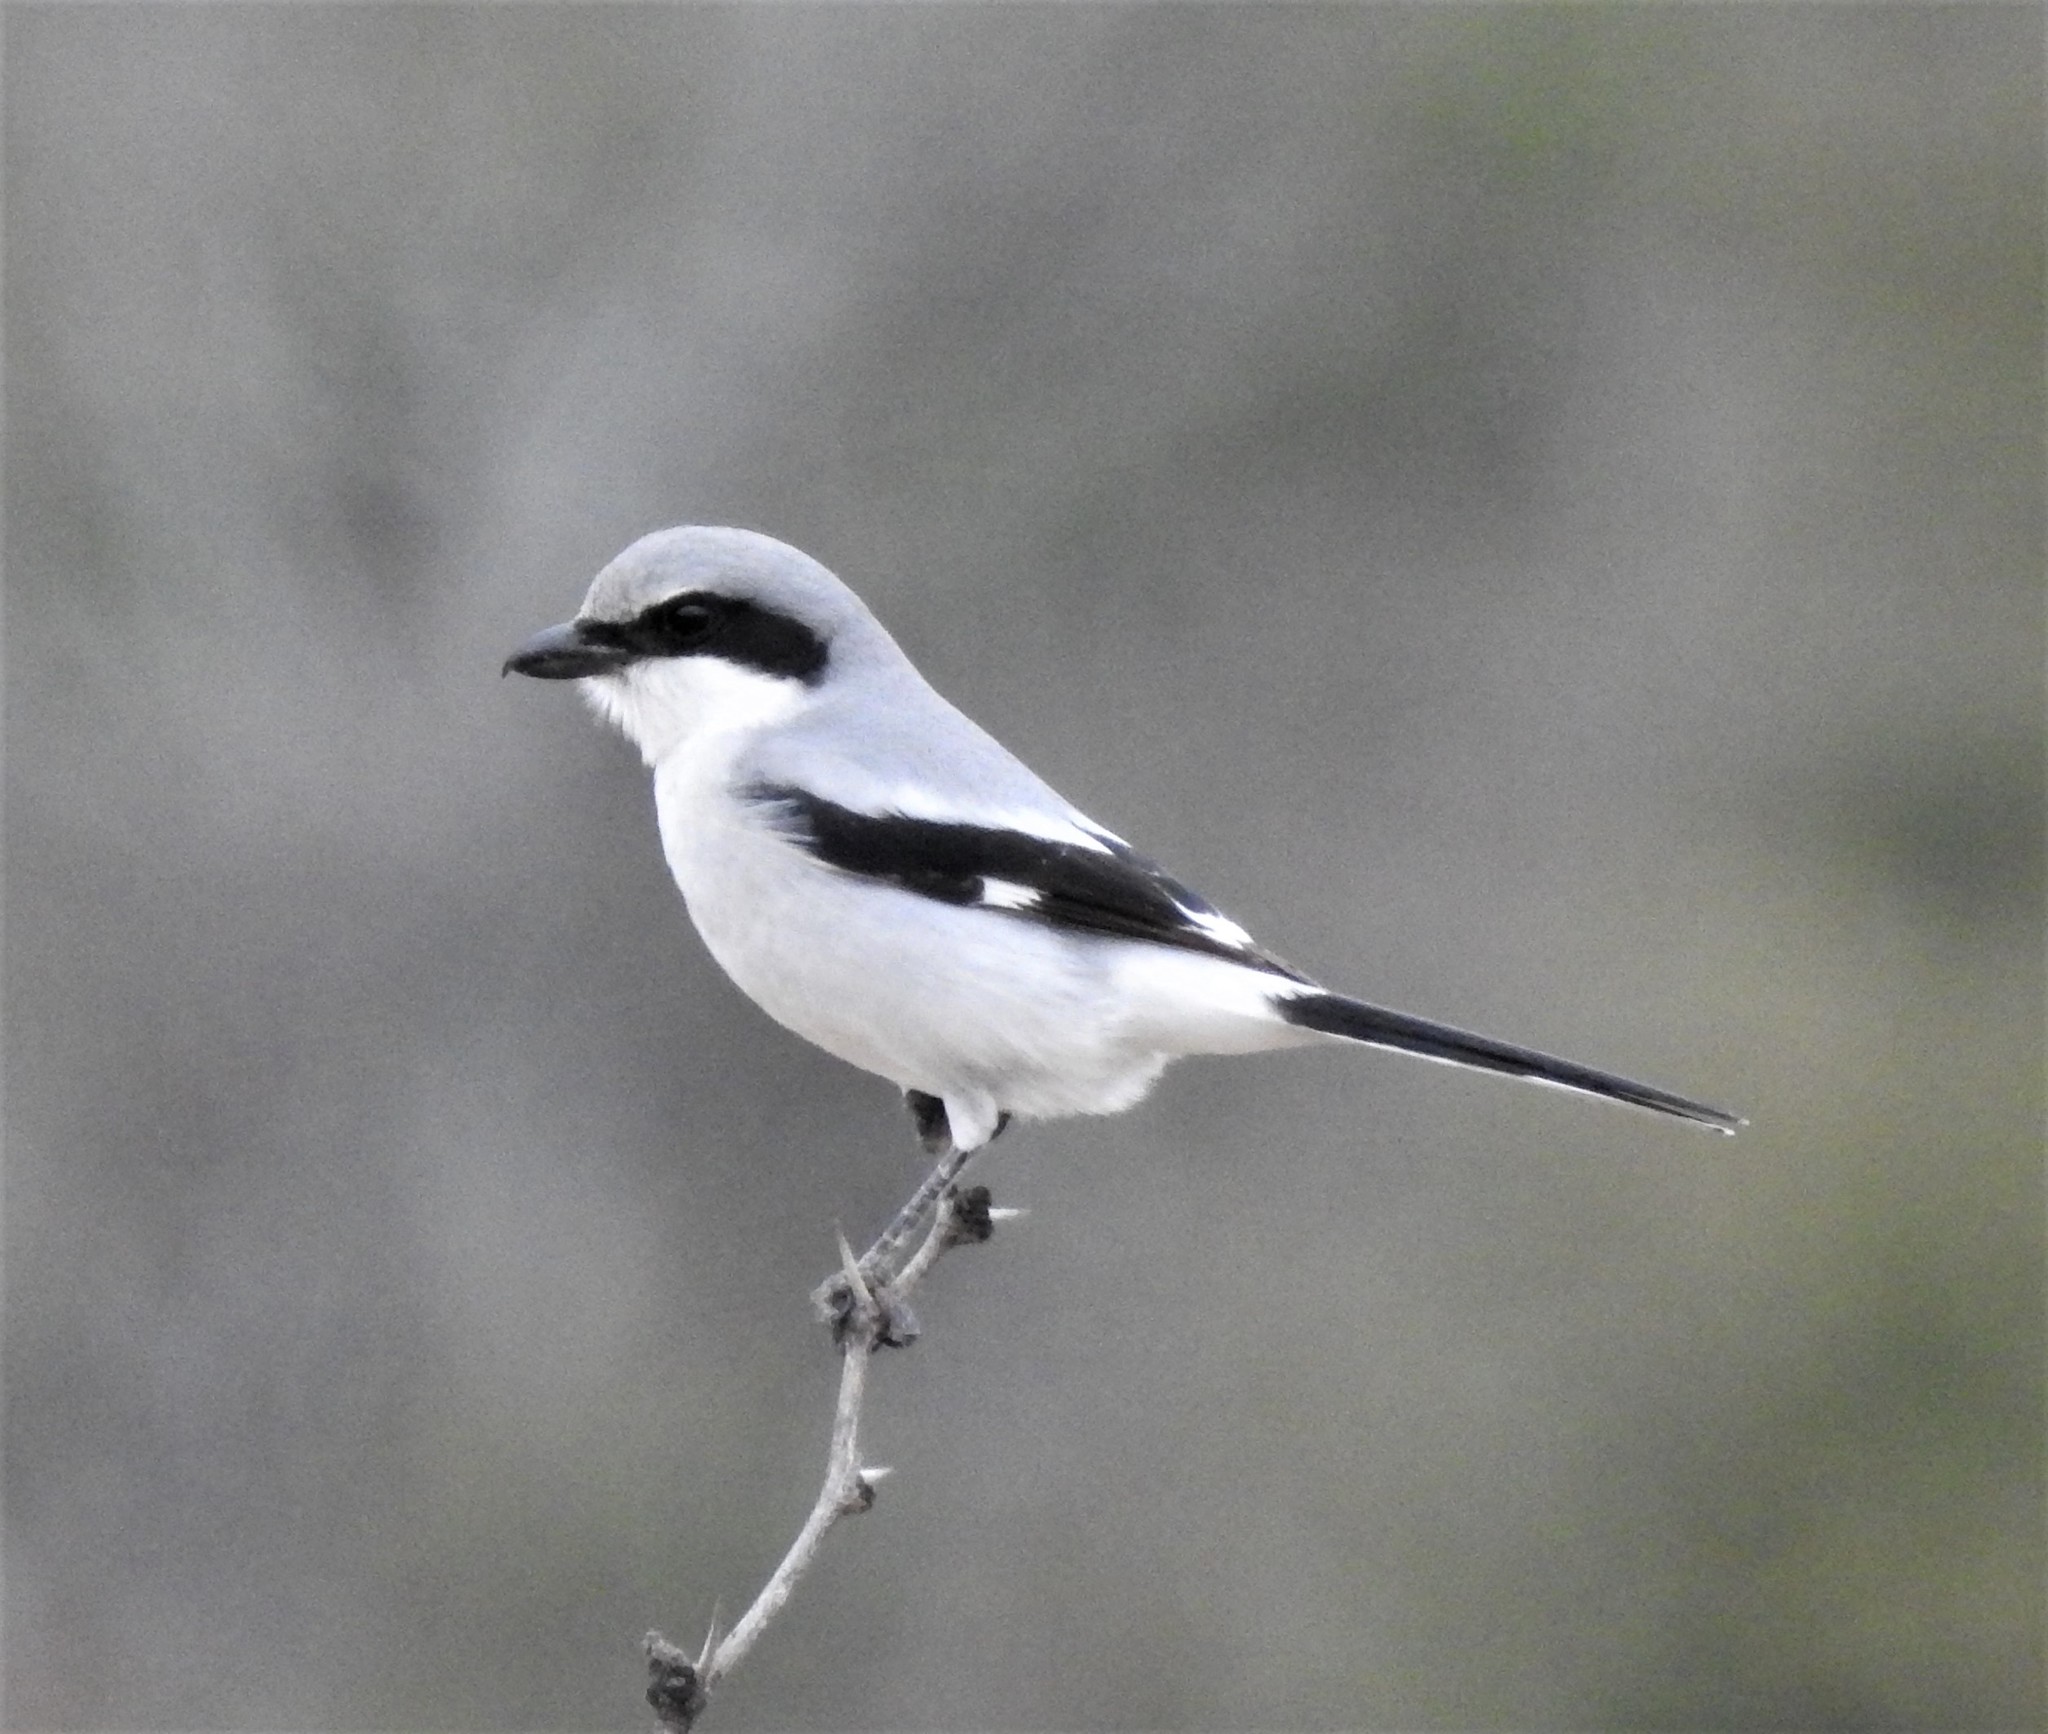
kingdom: Animalia
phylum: Chordata
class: Aves
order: Passeriformes
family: Laniidae
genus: Lanius
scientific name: Lanius ludovicianus
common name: Loggerhead shrike
